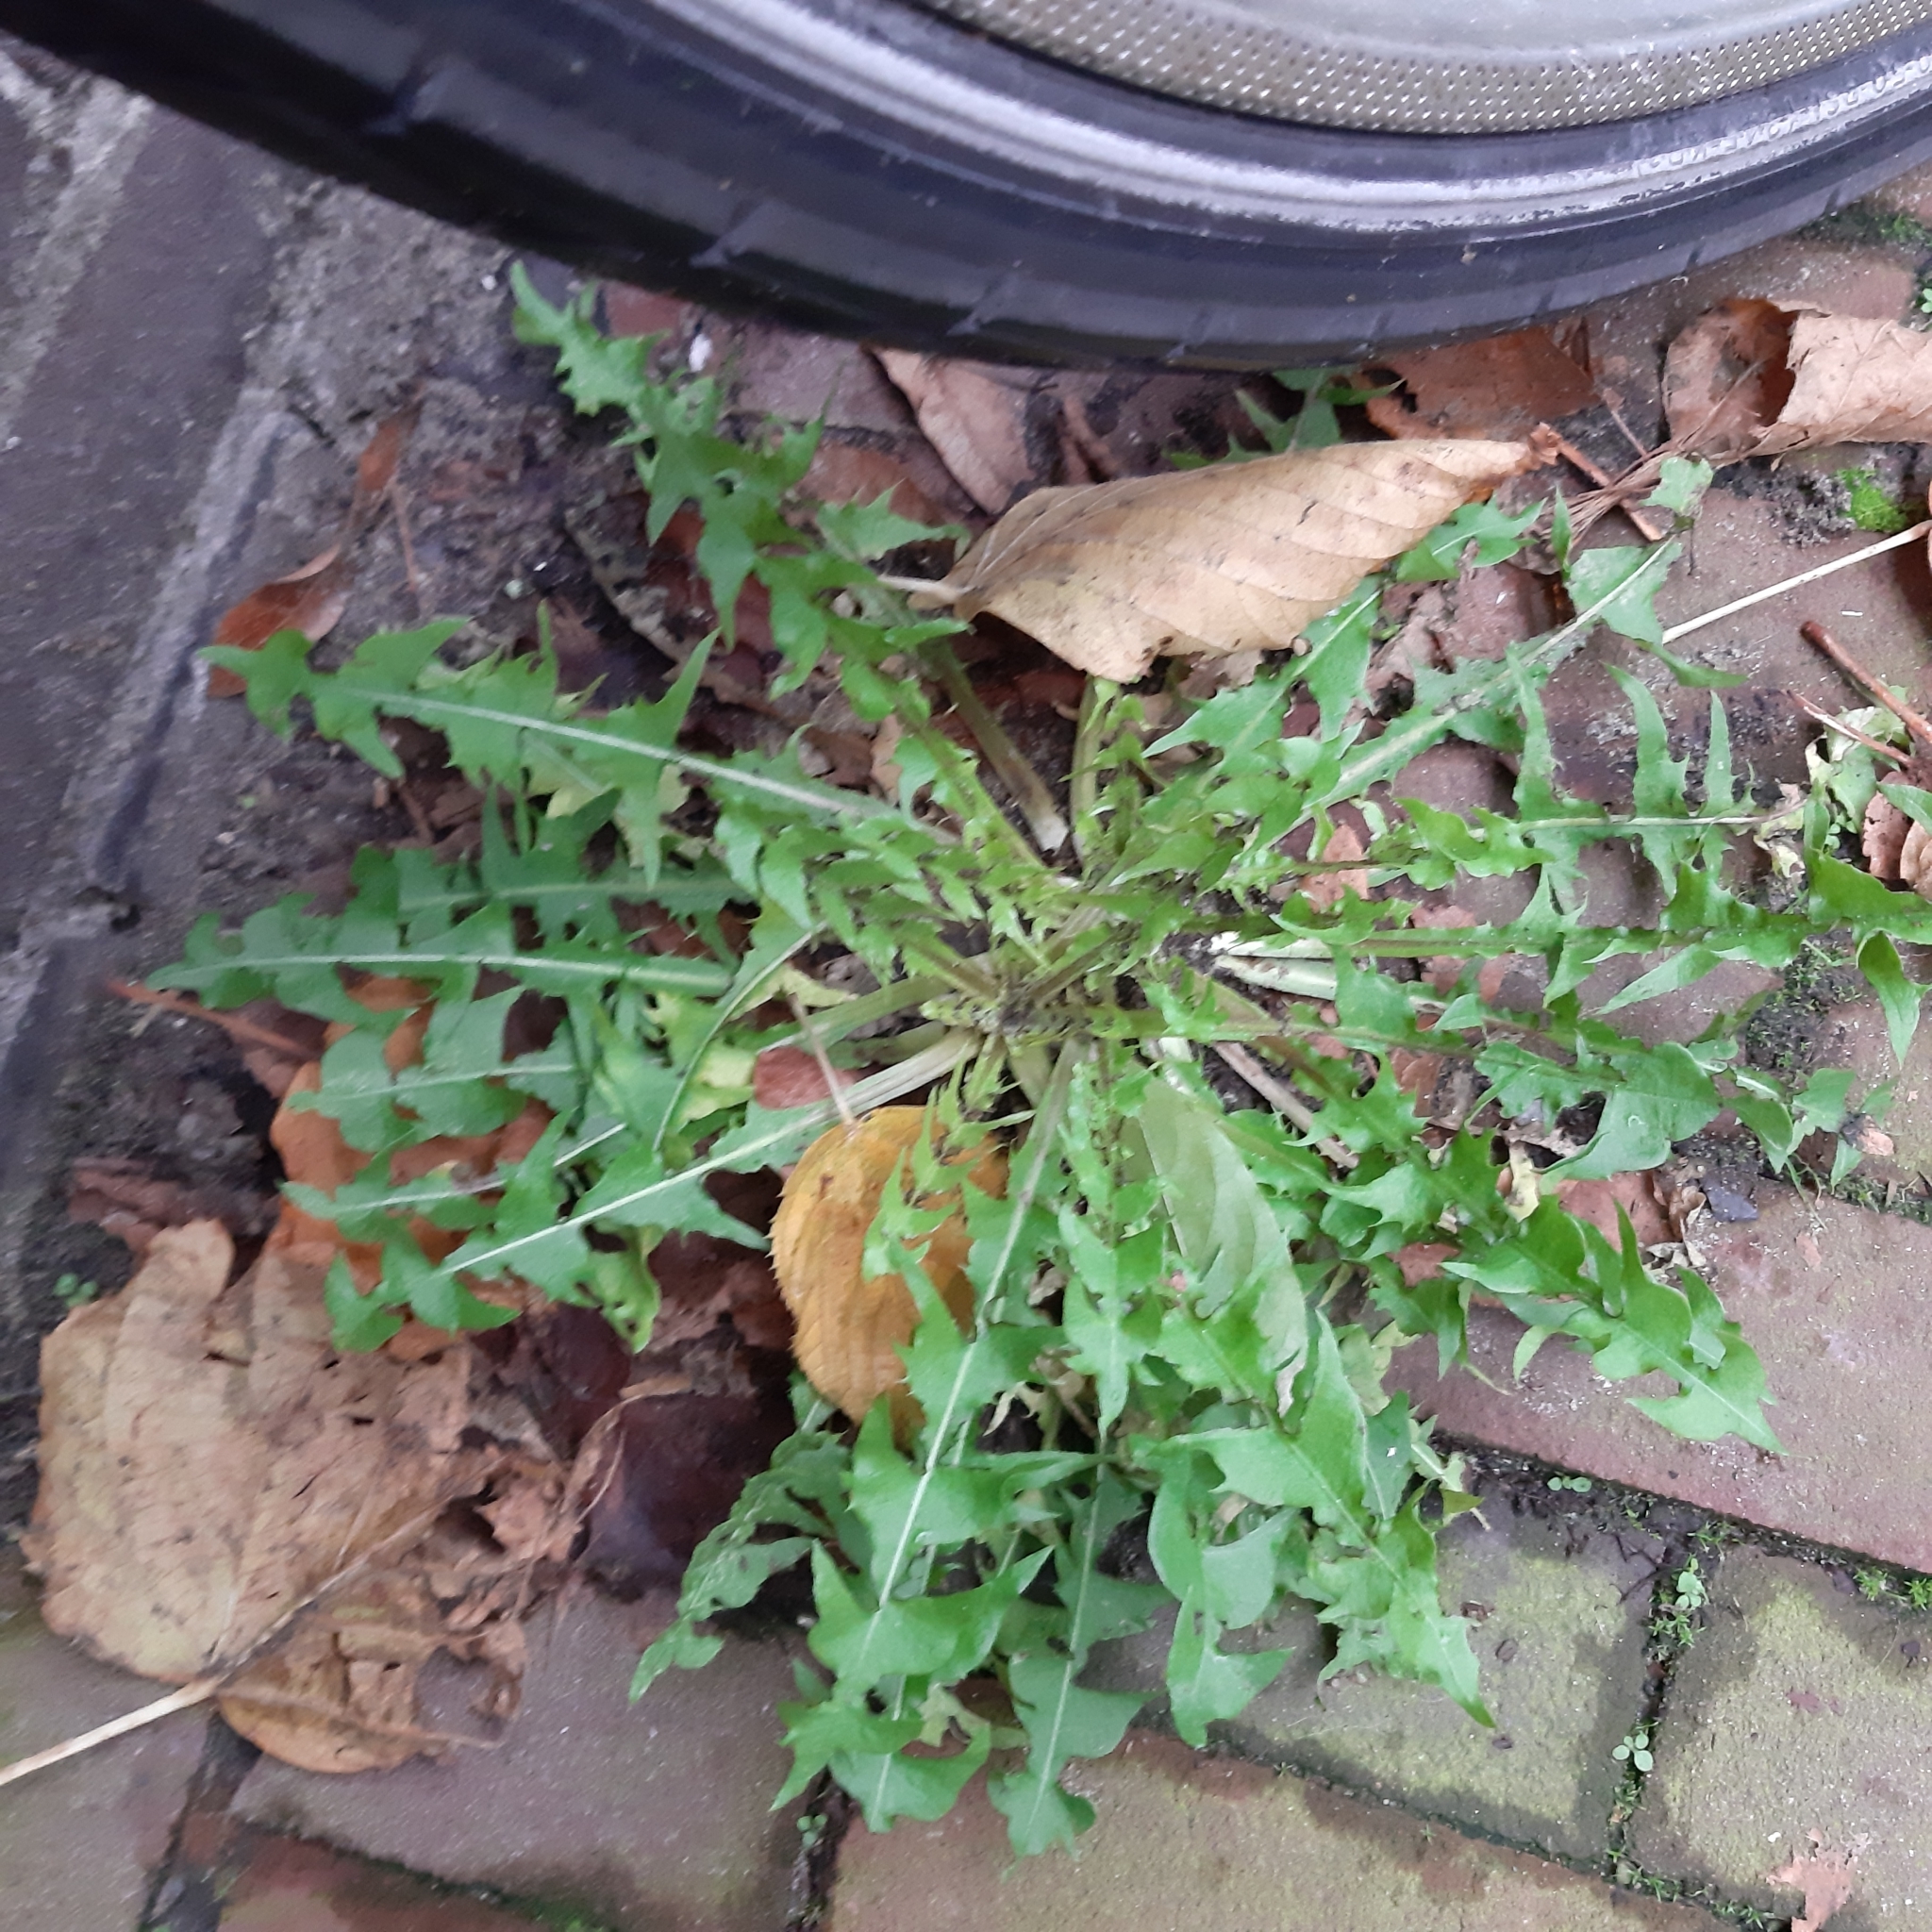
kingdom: Plantae
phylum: Tracheophyta
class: Magnoliopsida
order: Asterales
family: Asteraceae
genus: Taraxacum
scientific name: Taraxacum officinale
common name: Common dandelion
